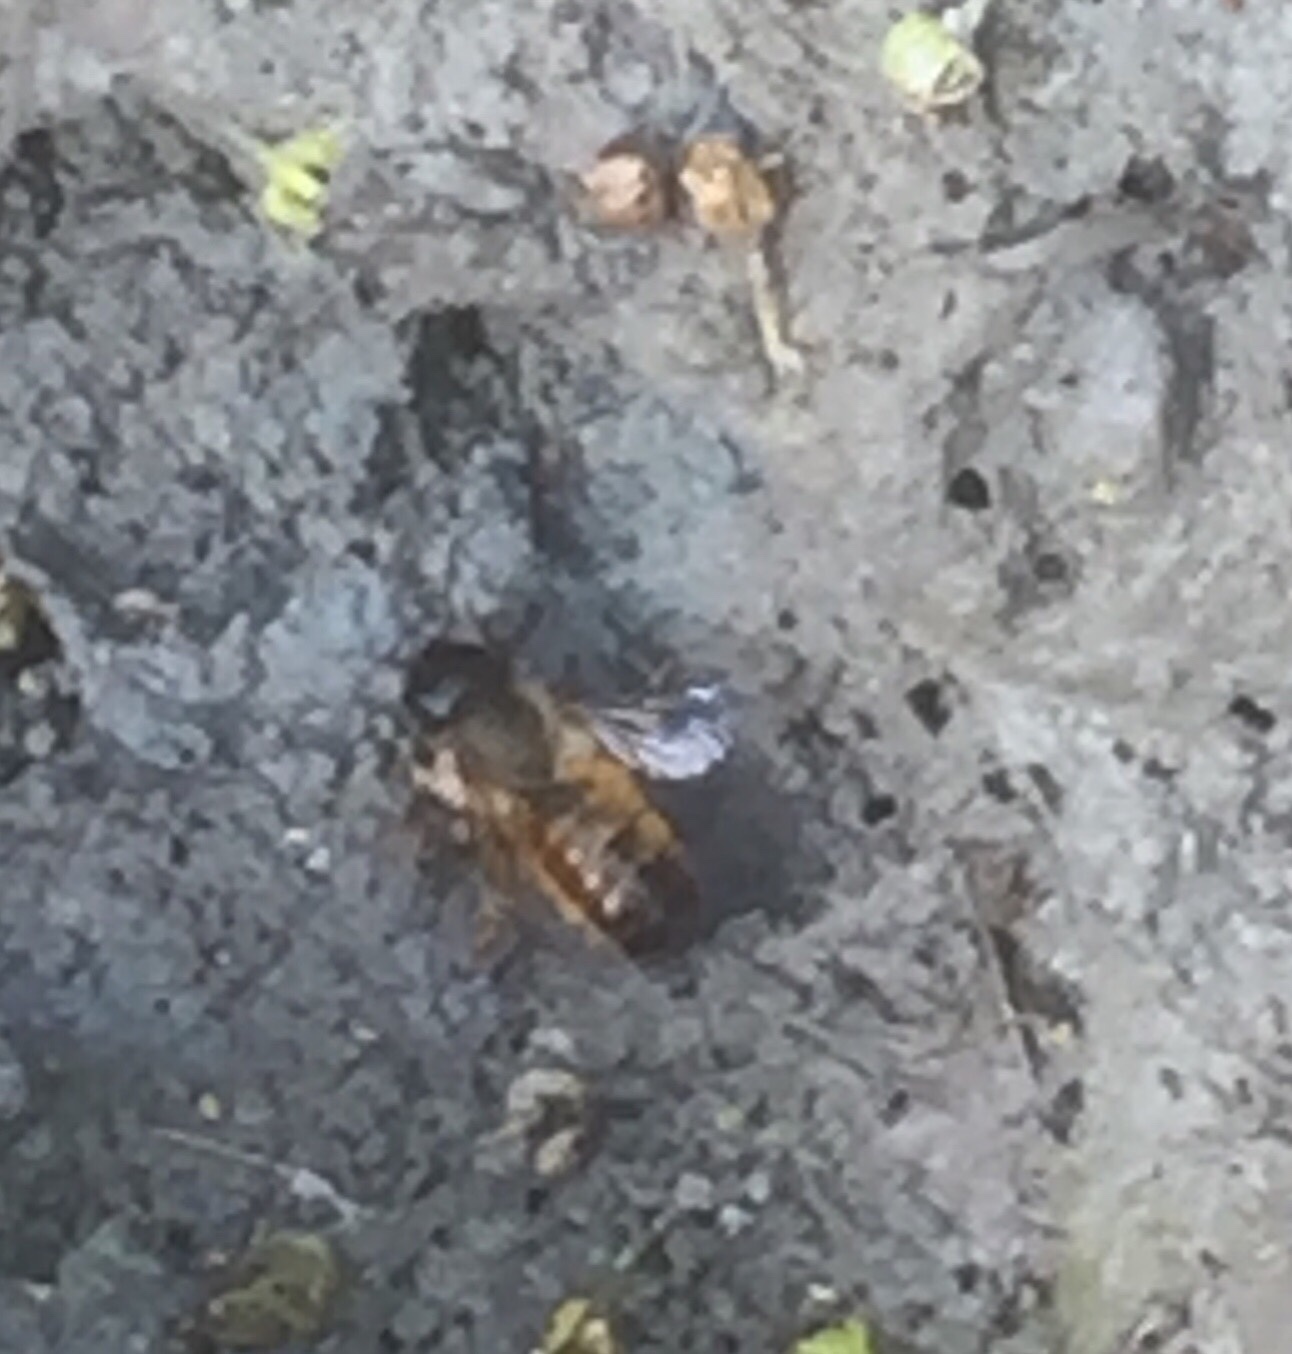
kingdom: Animalia
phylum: Arthropoda
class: Insecta
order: Hymenoptera
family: Megachilidae
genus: Osmia
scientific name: Osmia bicornis
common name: Red mason bee
